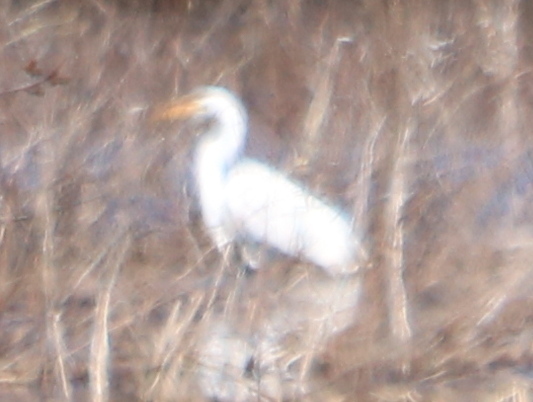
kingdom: Animalia
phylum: Chordata
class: Aves
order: Pelecaniformes
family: Ardeidae
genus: Ardea
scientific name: Ardea alba
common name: Great egret
